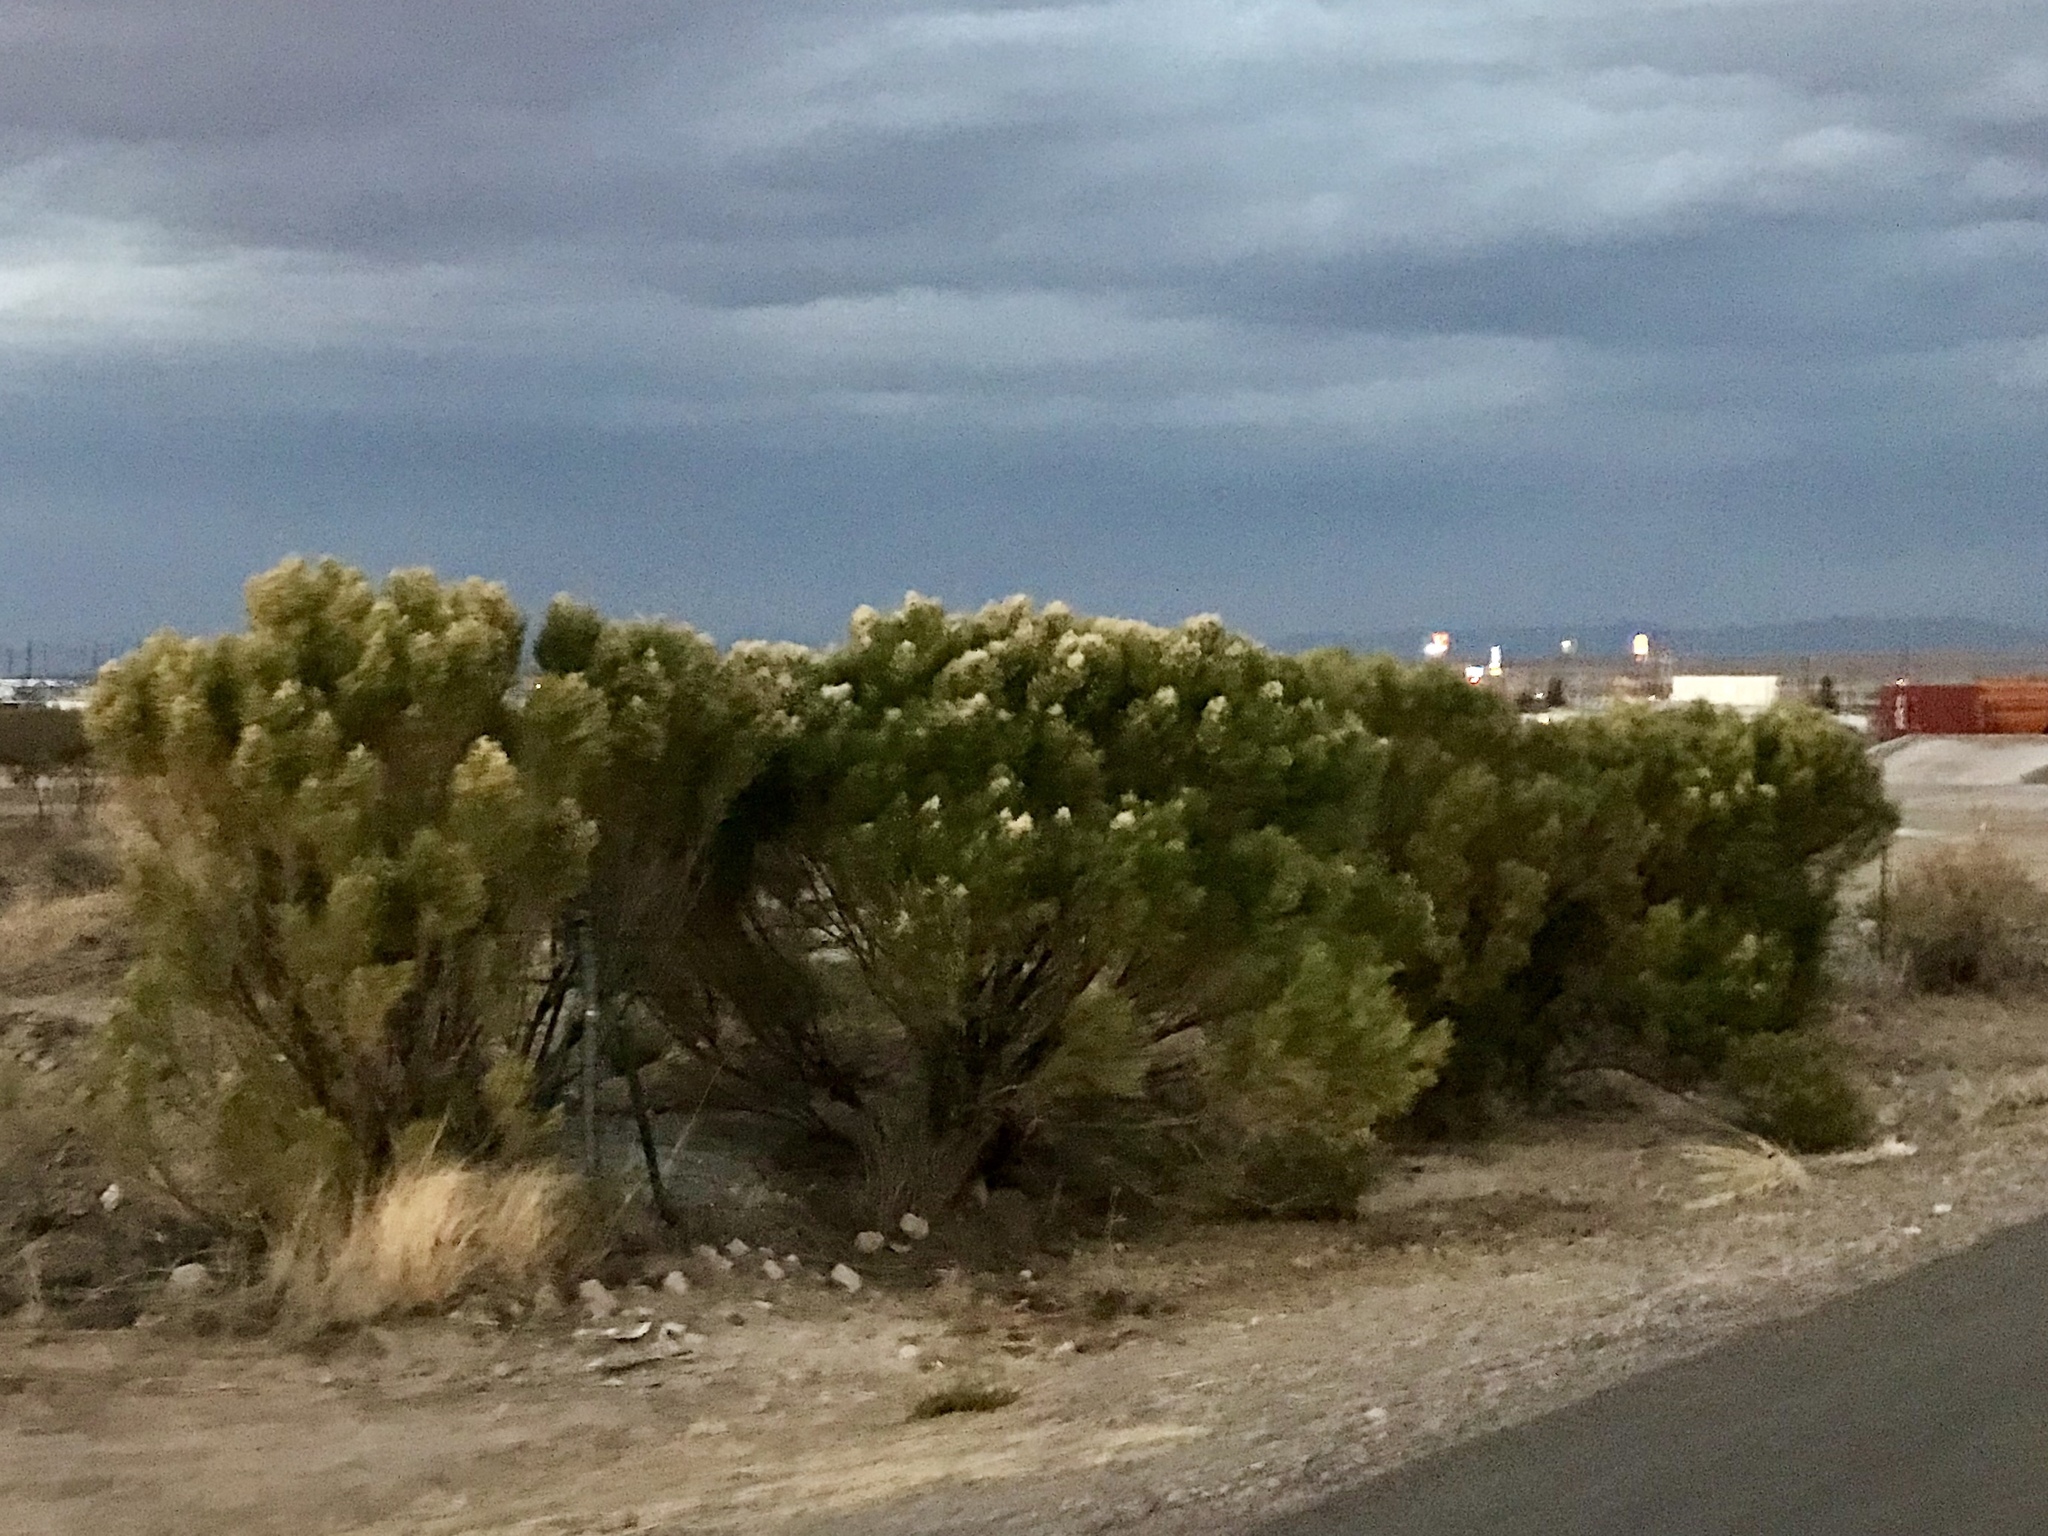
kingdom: Plantae
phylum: Tracheophyta
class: Magnoliopsida
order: Asterales
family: Asteraceae
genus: Baccharis
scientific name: Baccharis sarothroides
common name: Desert-broom
